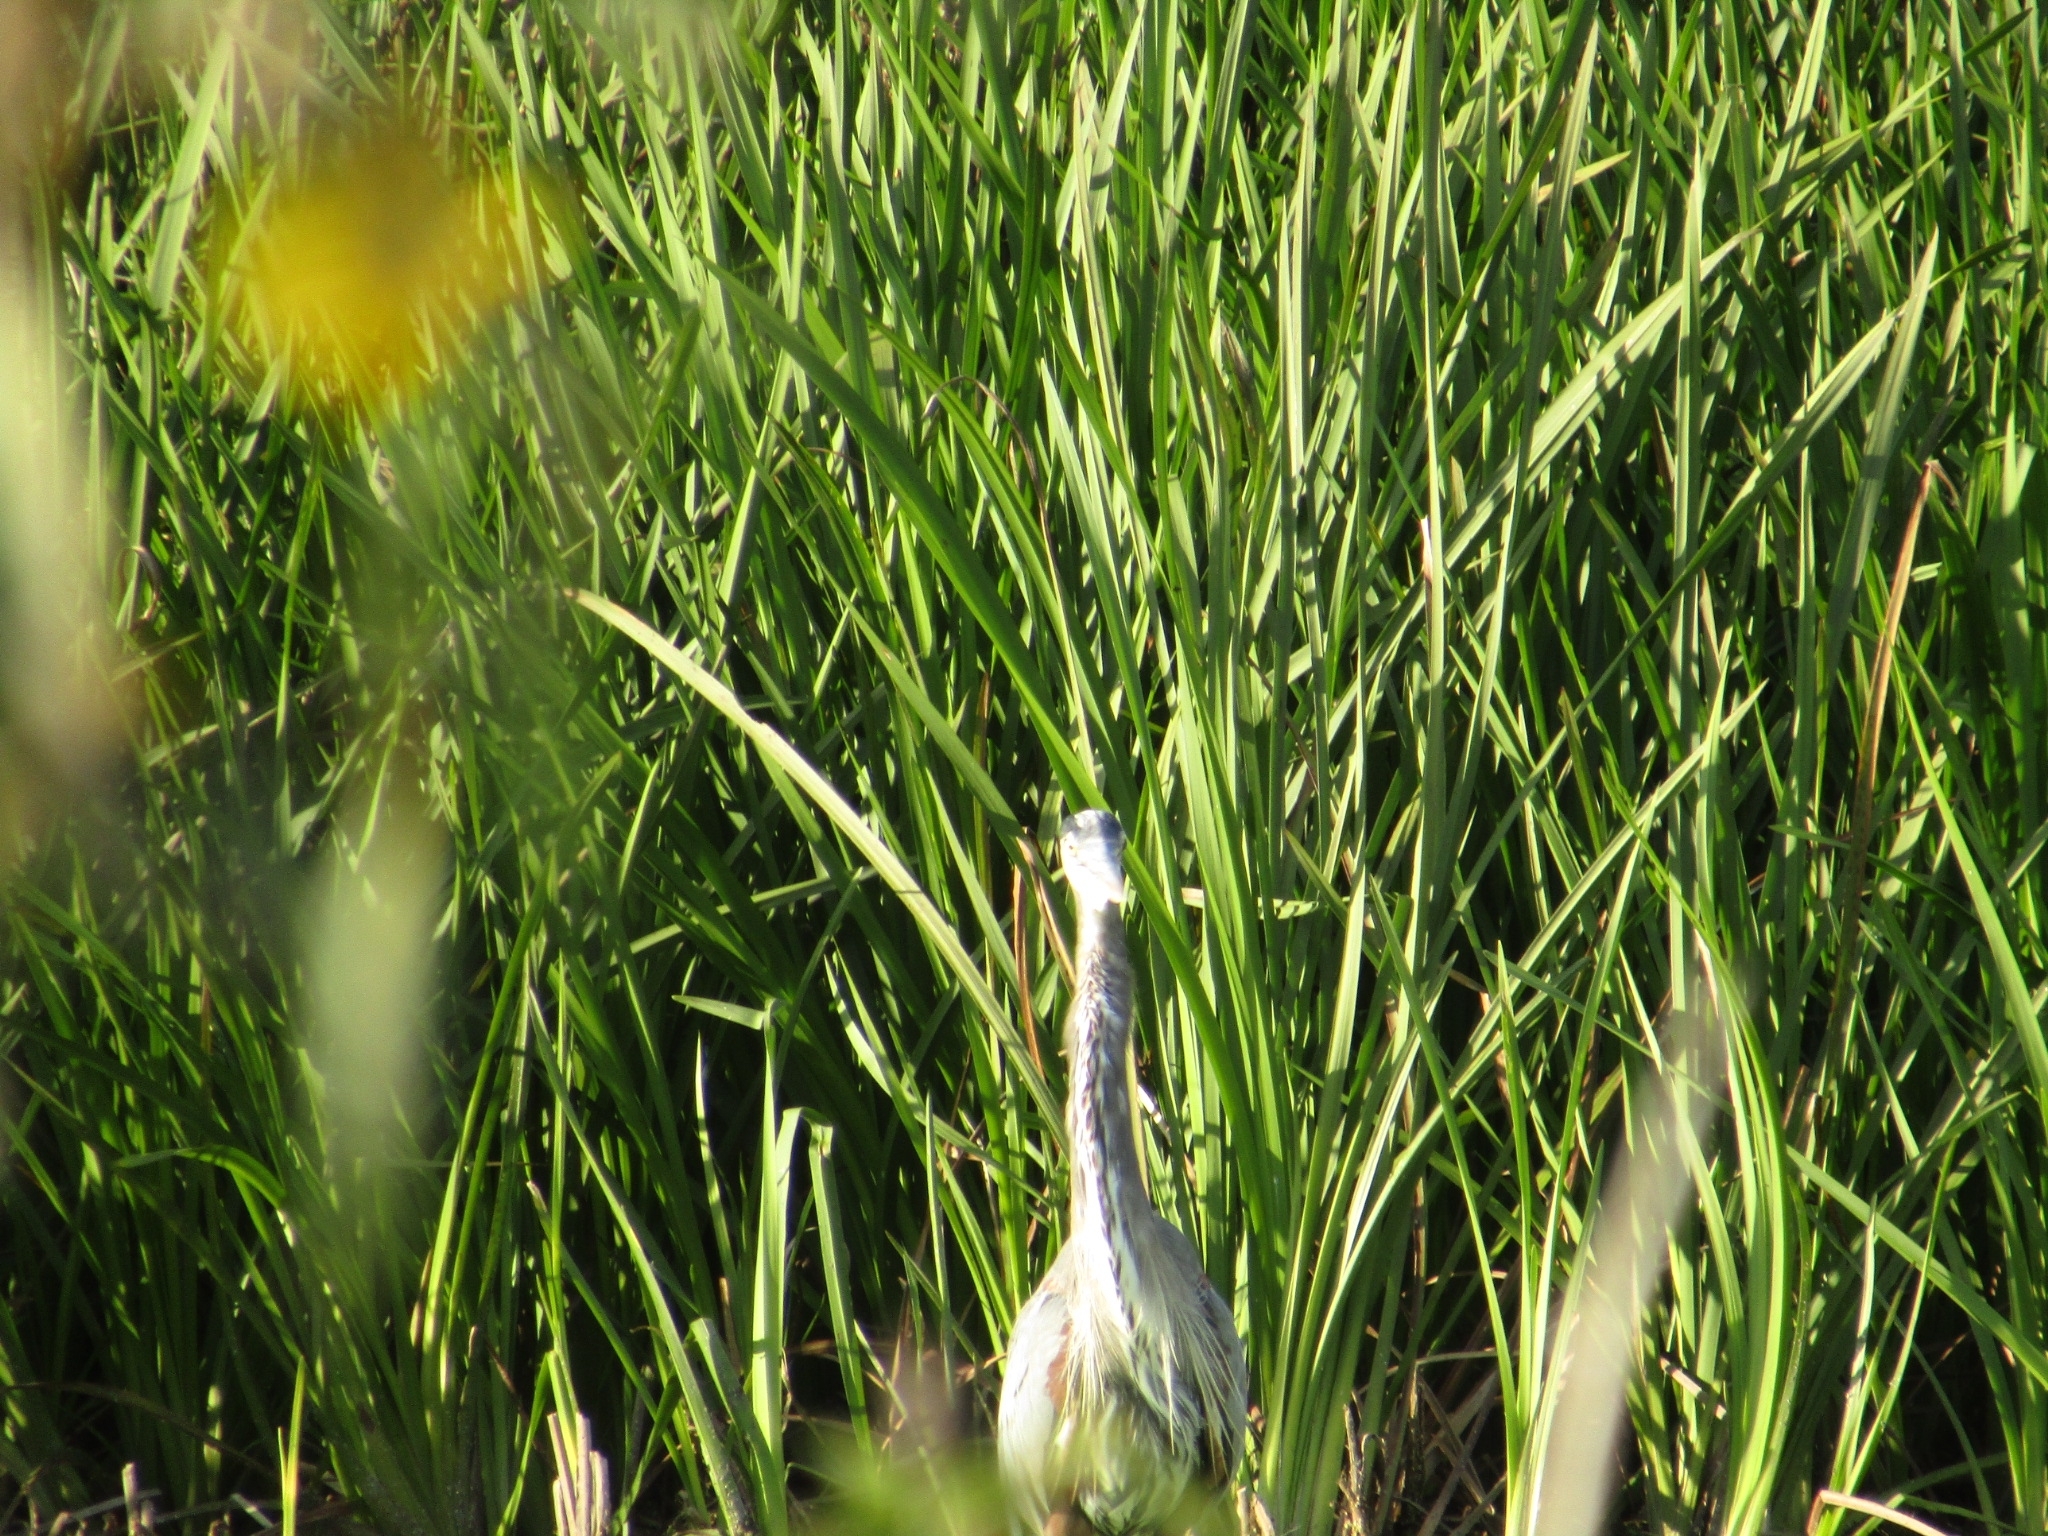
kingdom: Animalia
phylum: Chordata
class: Aves
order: Pelecaniformes
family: Ardeidae
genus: Ardea
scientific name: Ardea herodias
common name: Great blue heron
